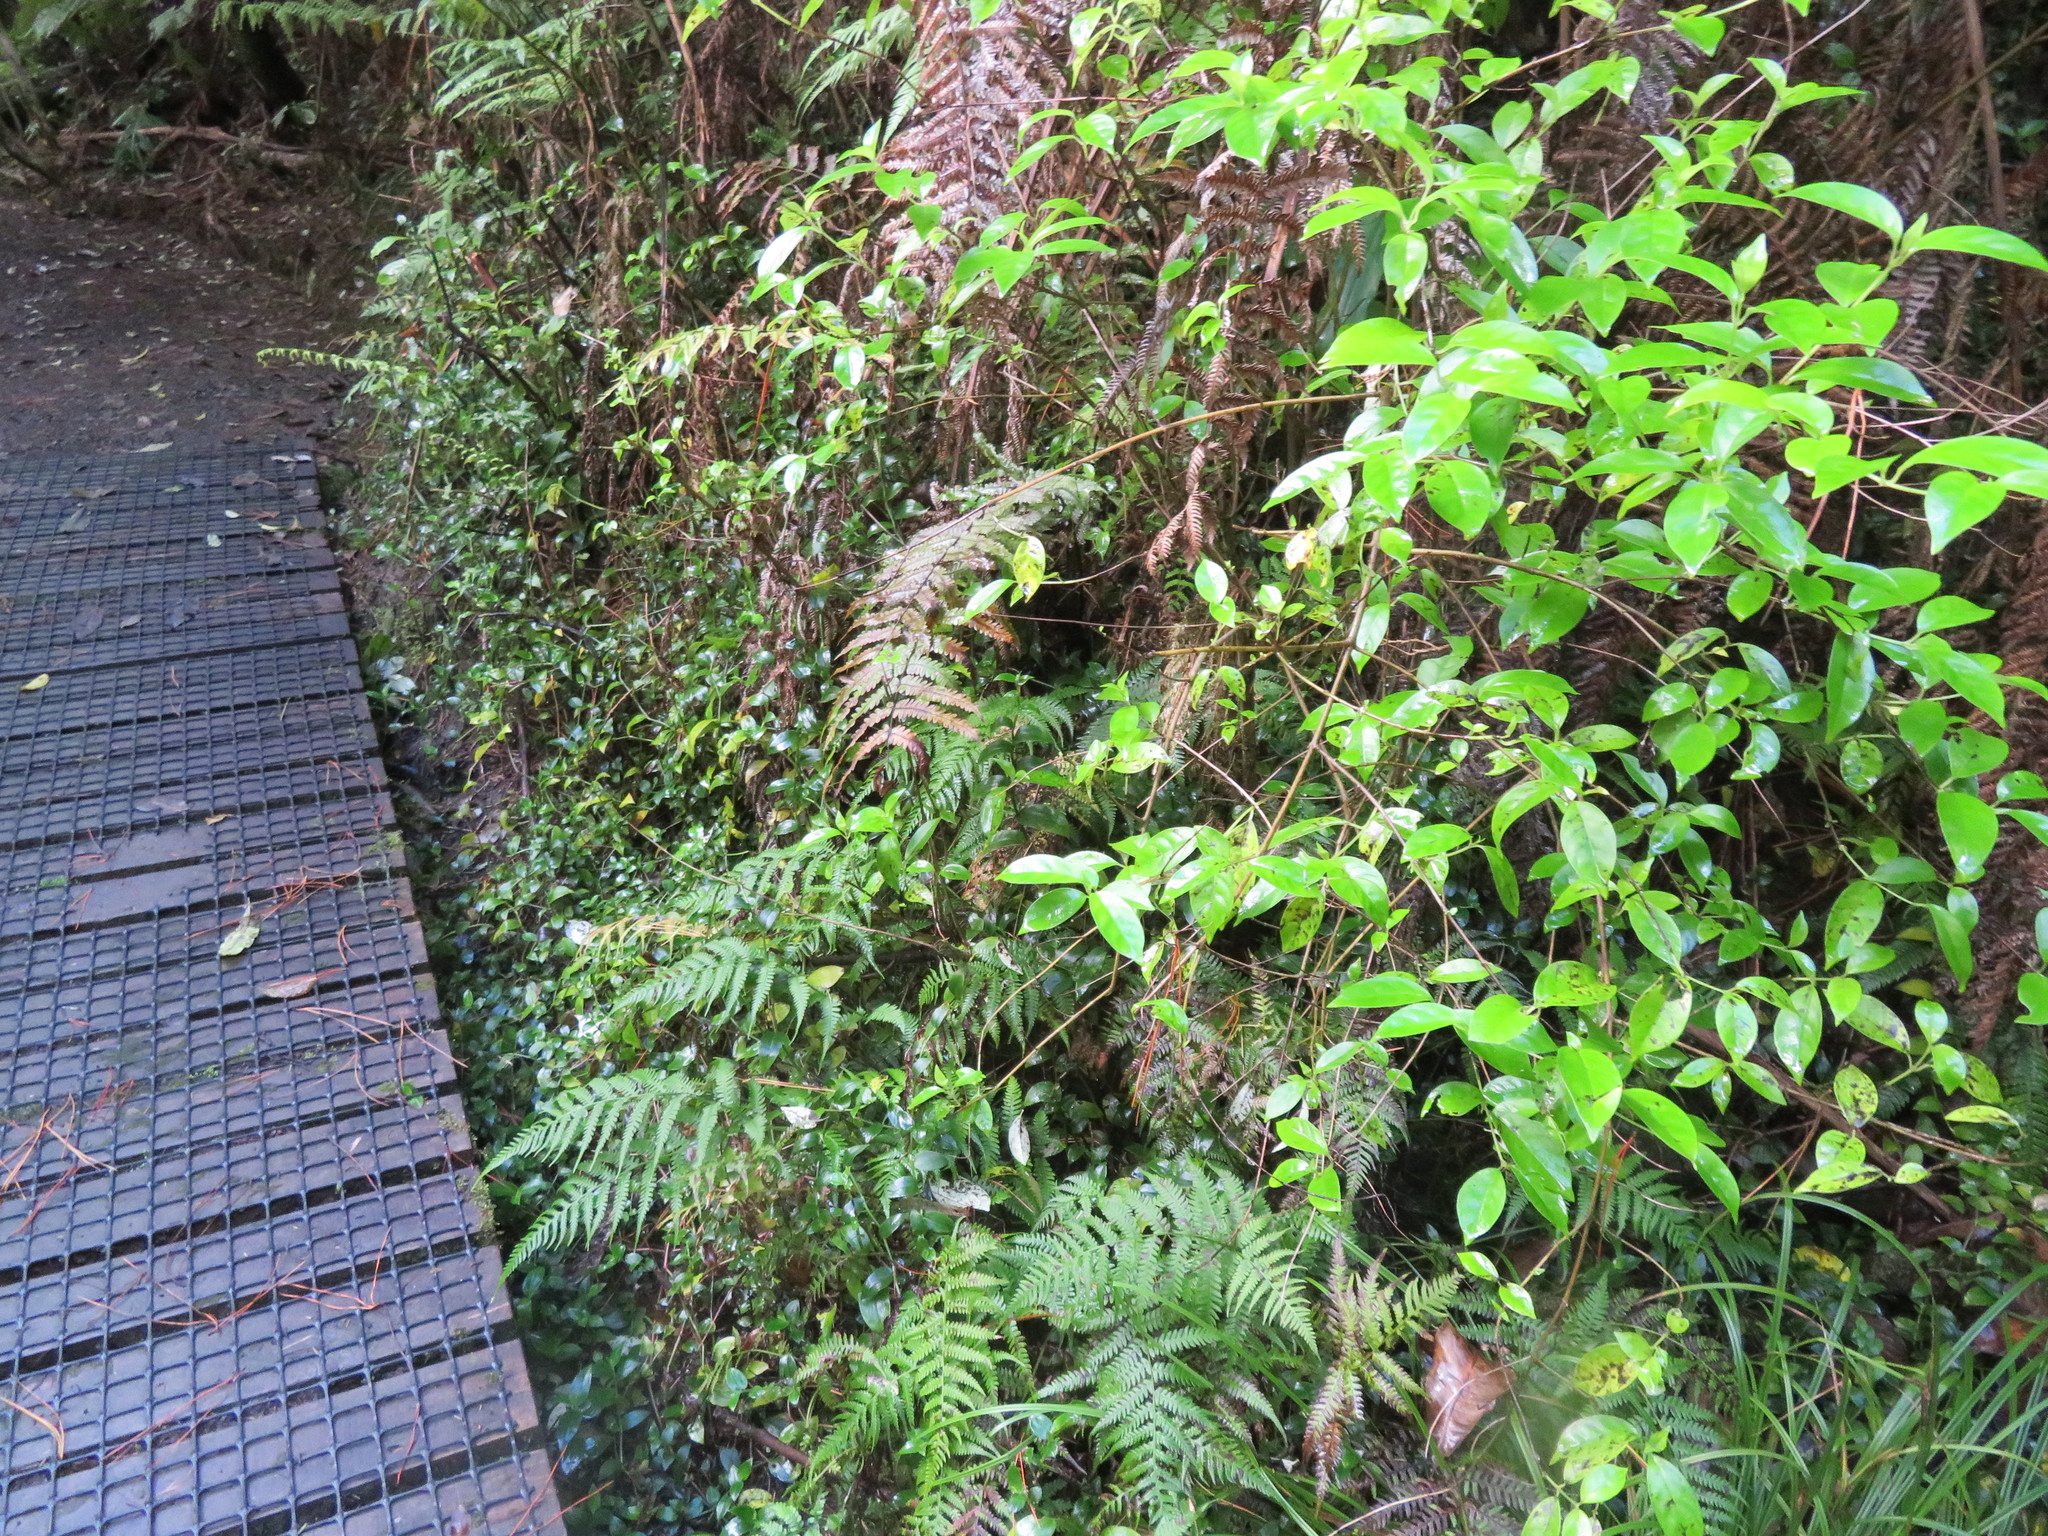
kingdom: Plantae
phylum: Tracheophyta
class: Magnoliopsida
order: Gentianales
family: Loganiaceae
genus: Geniostoma
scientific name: Geniostoma ligustrifolium
